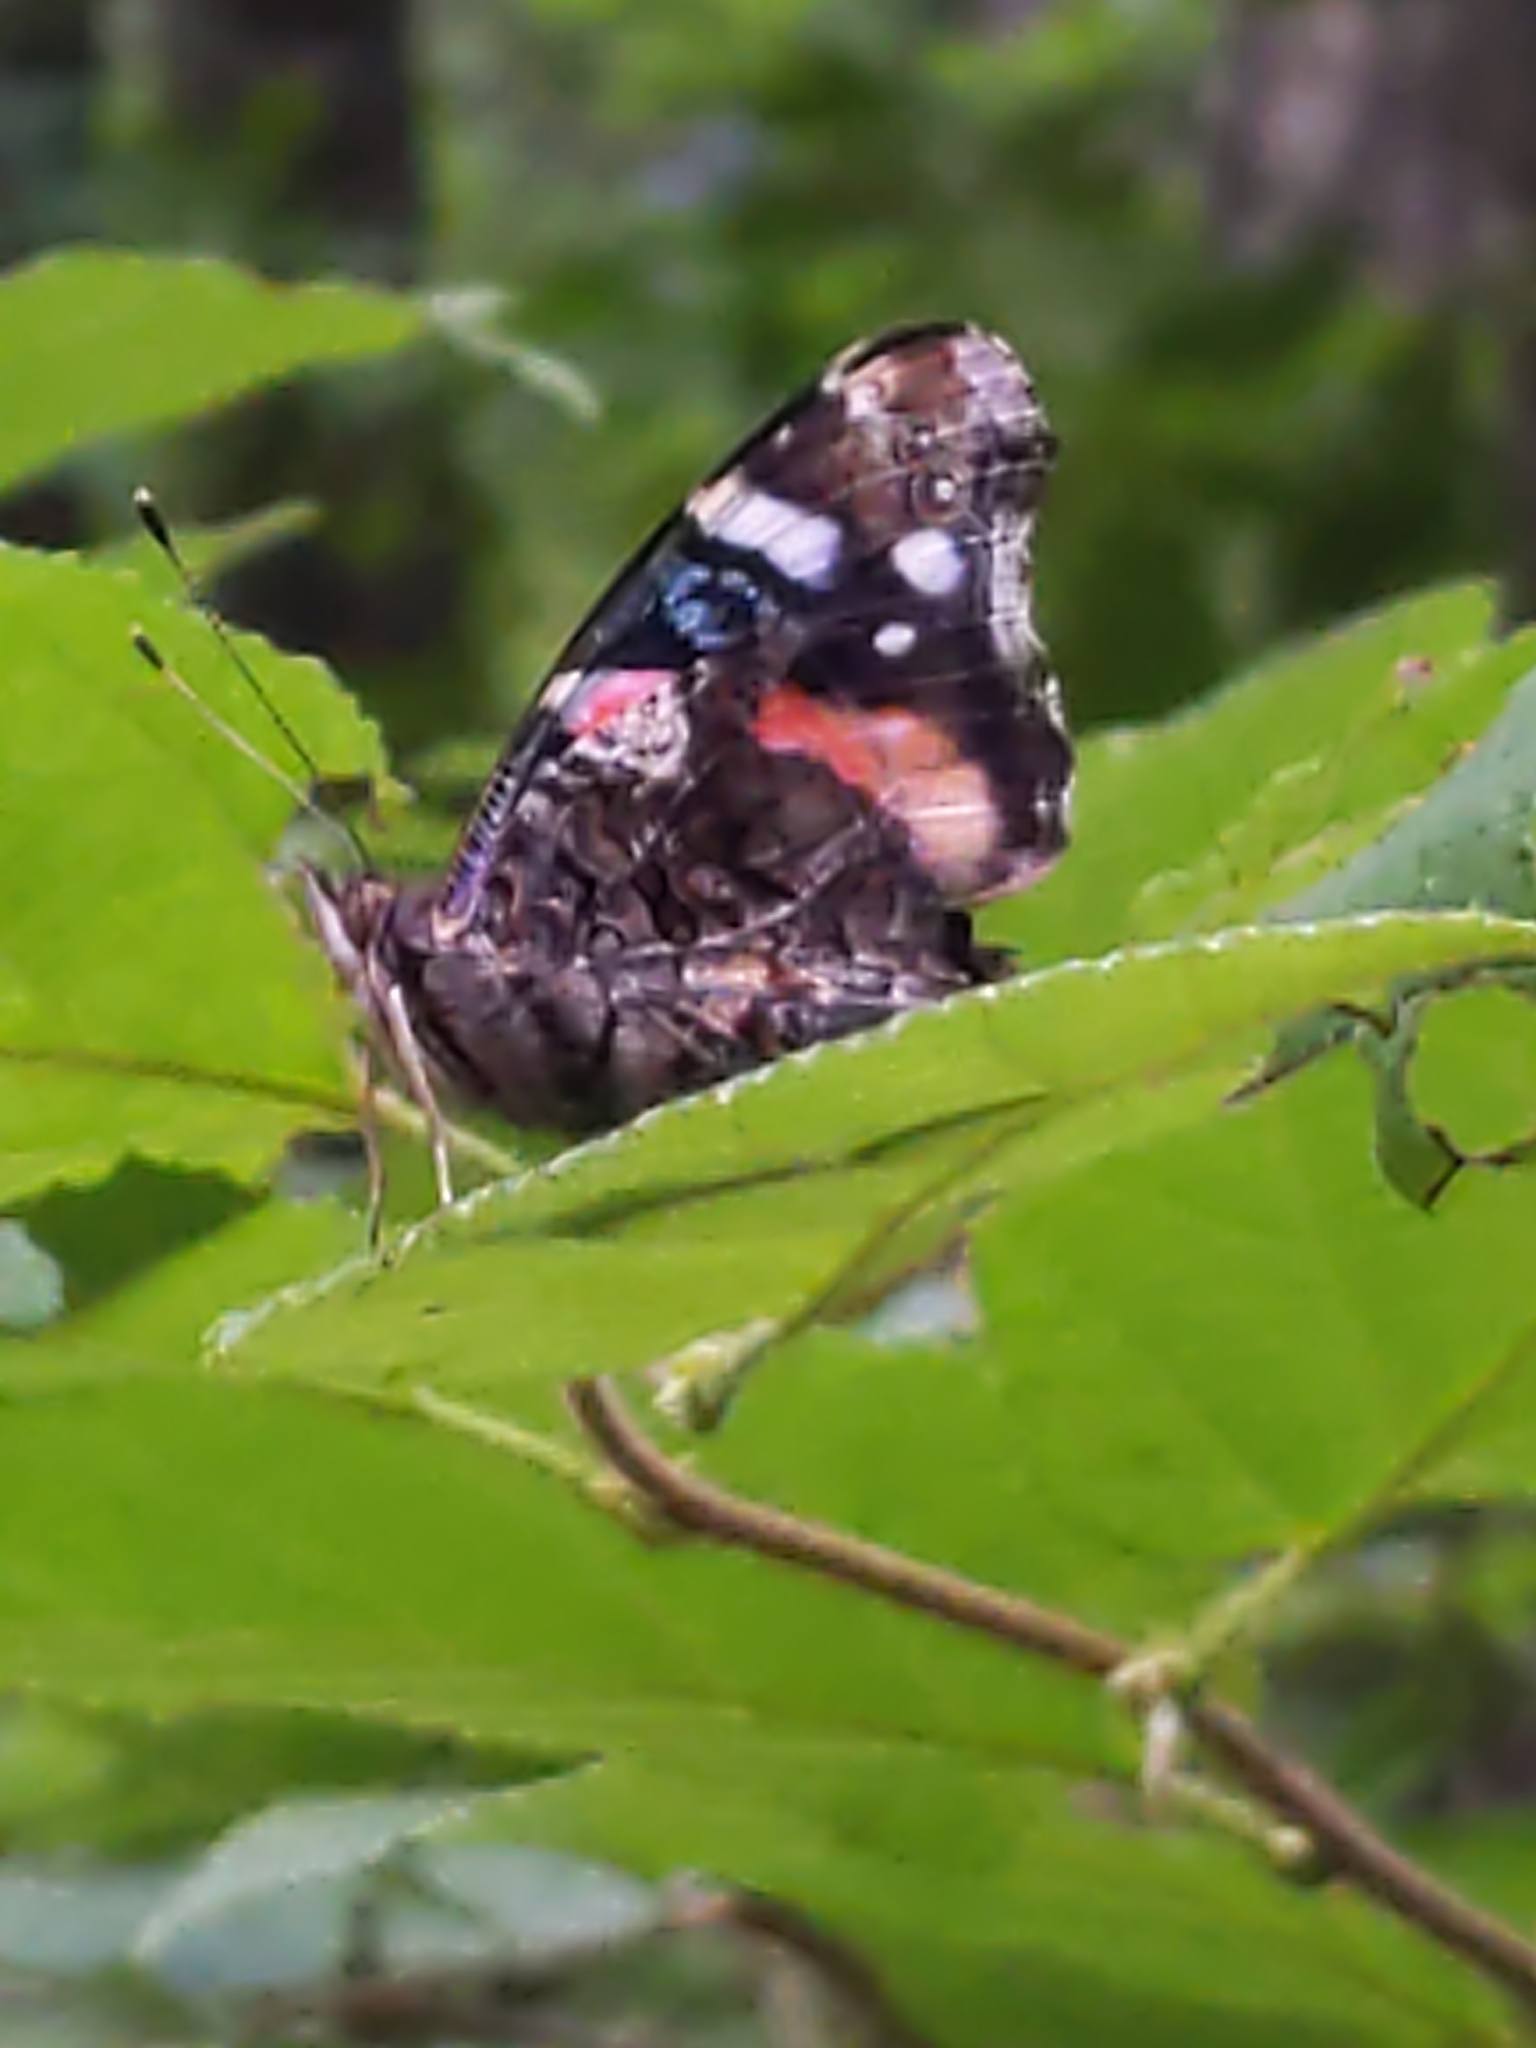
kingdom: Animalia
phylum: Arthropoda
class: Insecta
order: Lepidoptera
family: Nymphalidae
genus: Vanessa
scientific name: Vanessa atalanta
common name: Red admiral
